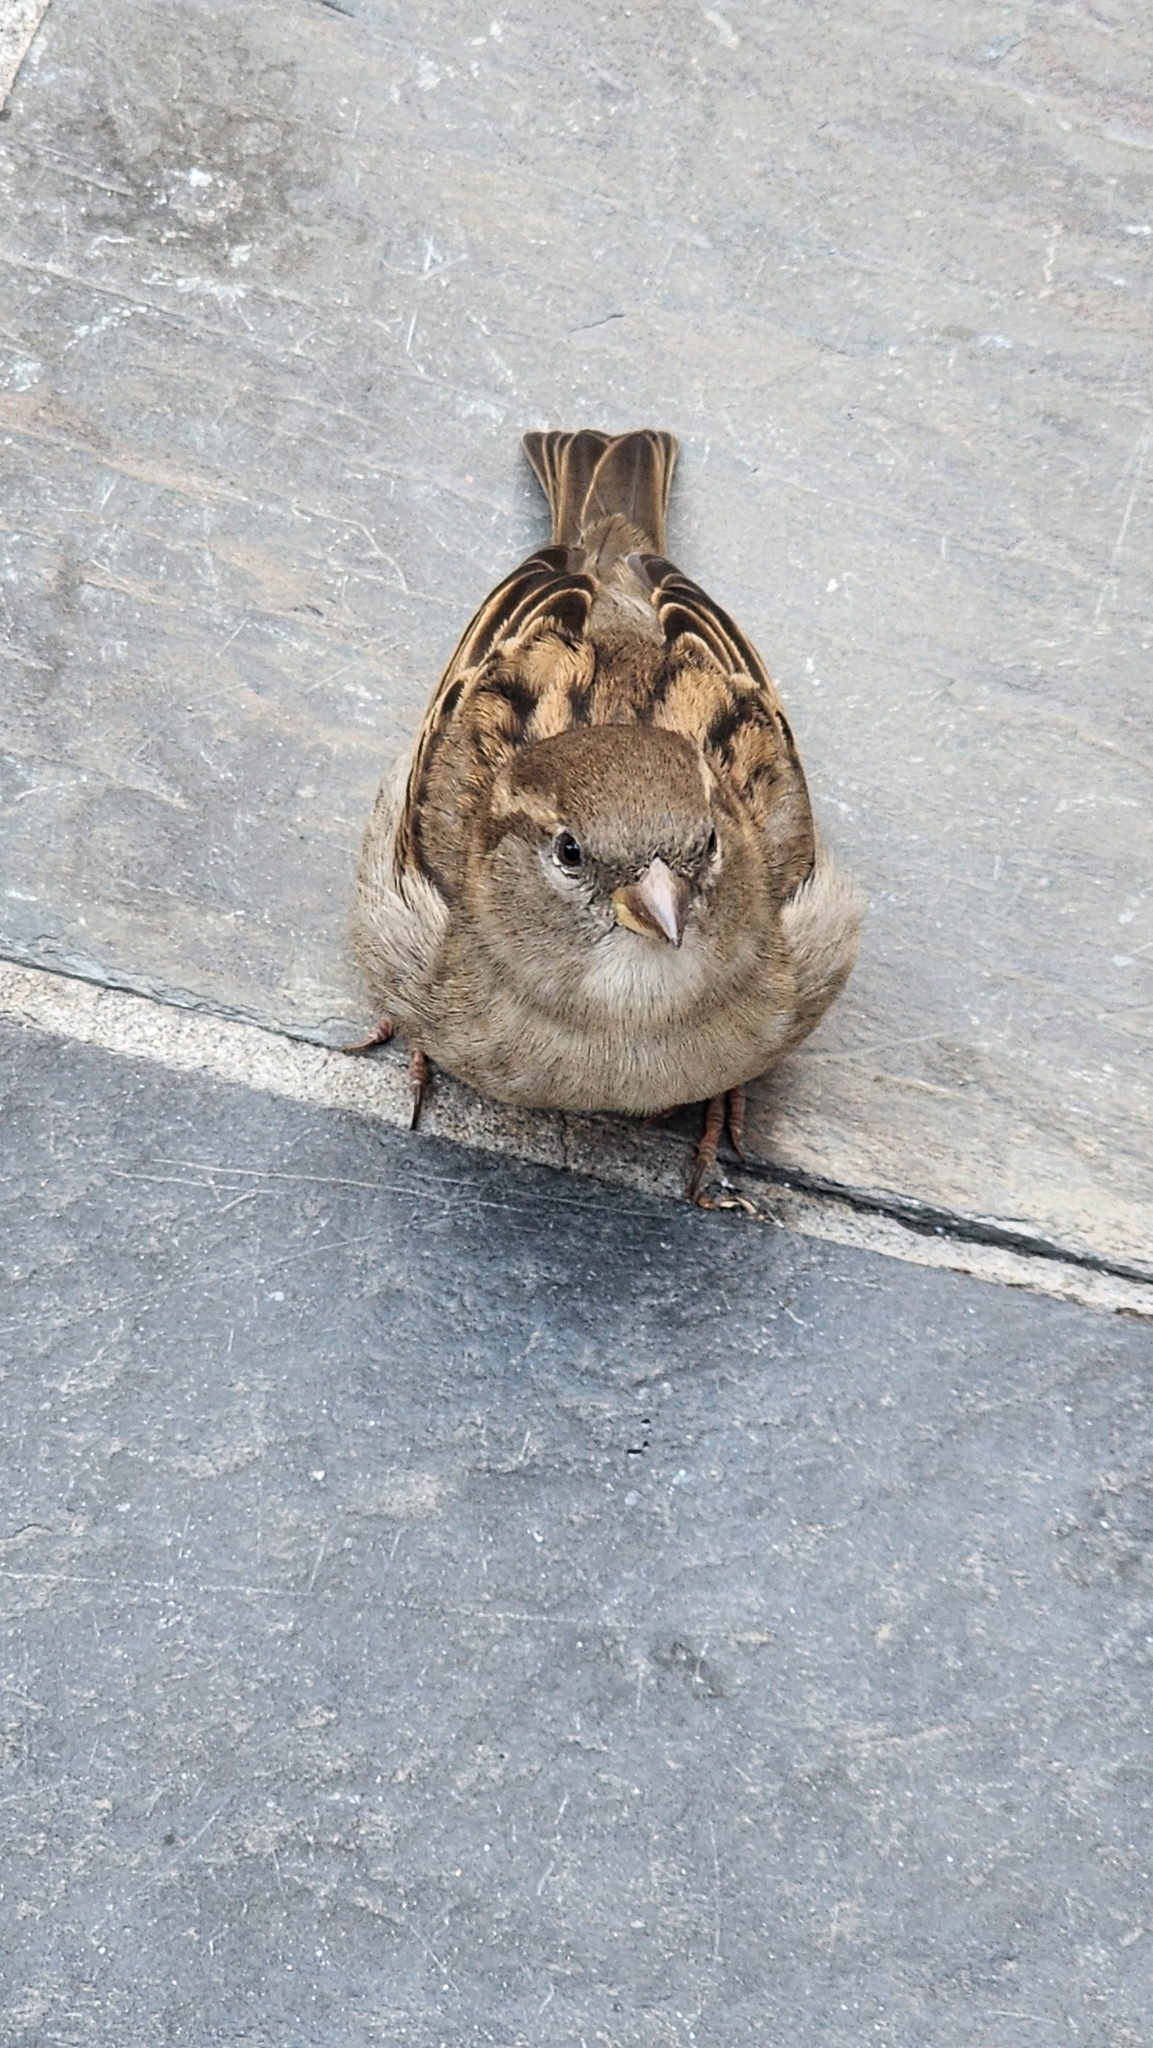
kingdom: Animalia
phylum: Chordata
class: Aves
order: Passeriformes
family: Passeridae
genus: Passer
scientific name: Passer domesticus
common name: House sparrow
